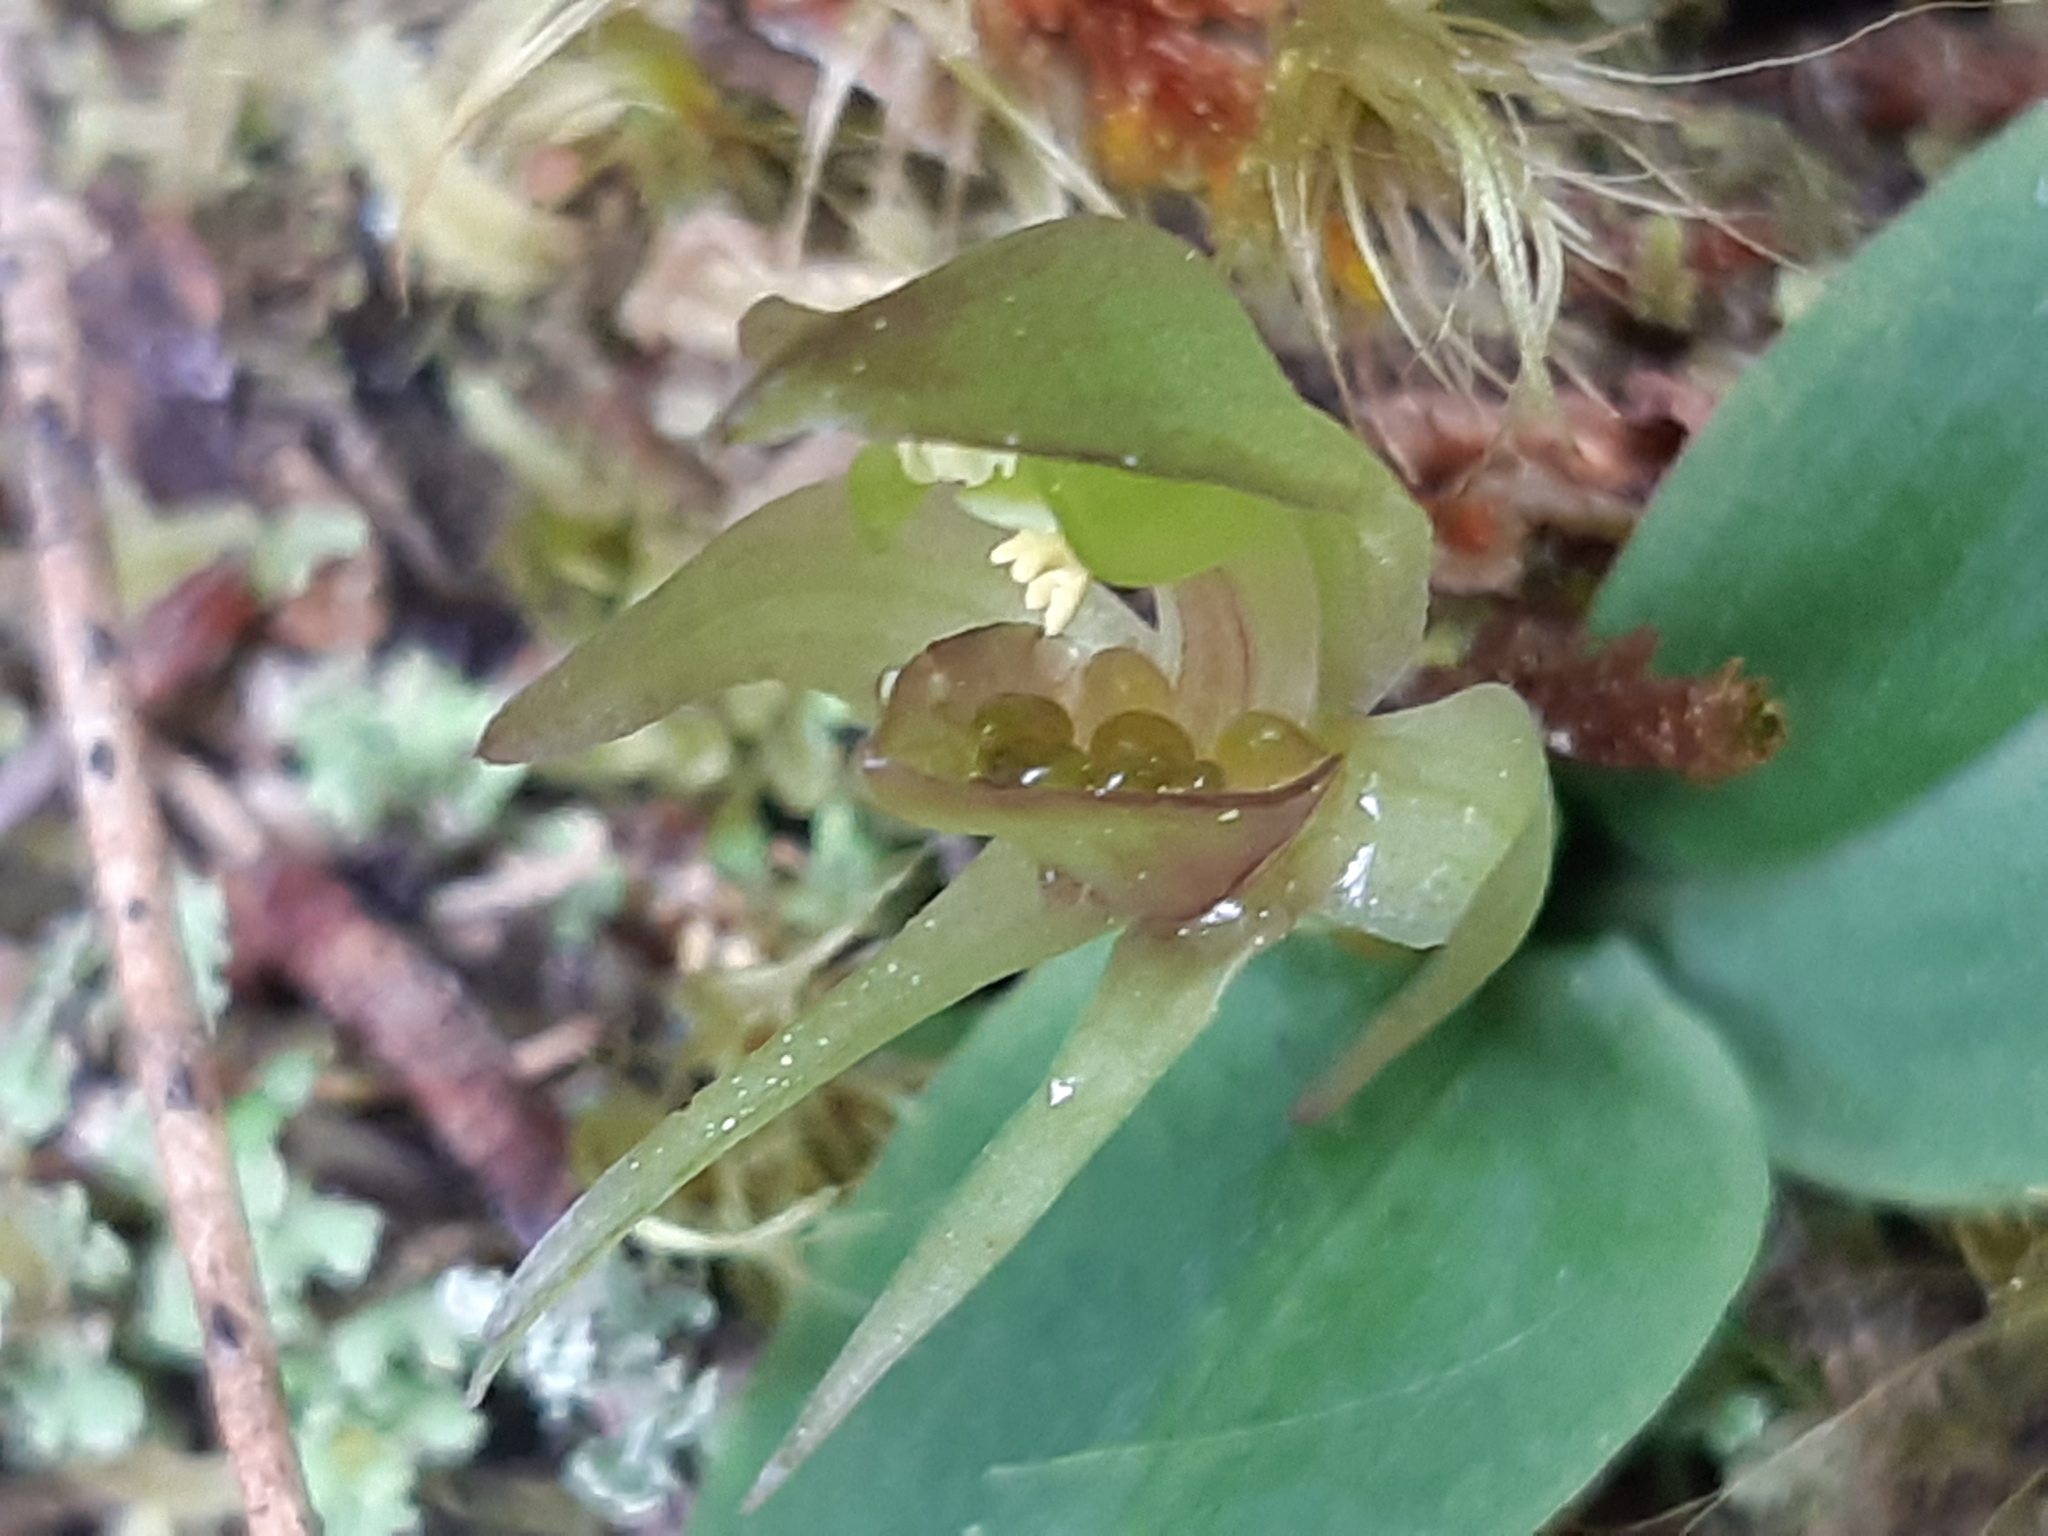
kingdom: Plantae
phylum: Tracheophyta
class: Liliopsida
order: Asparagales
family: Orchidaceae
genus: Chiloglottis
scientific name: Chiloglottis cornuta
